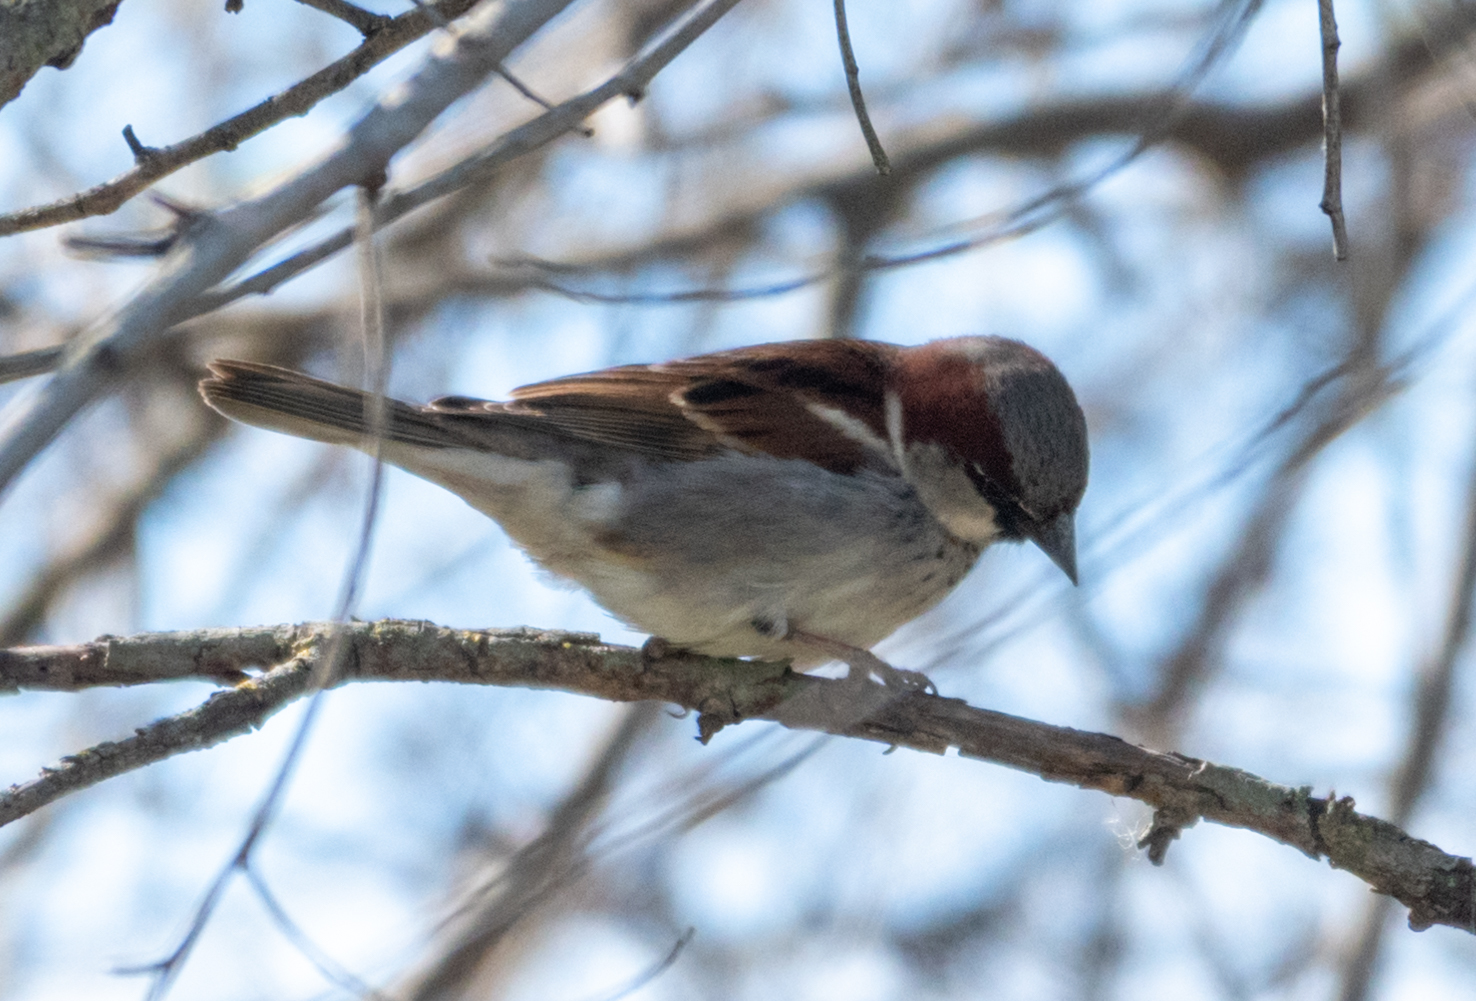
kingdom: Animalia
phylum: Chordata
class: Aves
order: Passeriformes
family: Passeridae
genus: Passer
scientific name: Passer domesticus
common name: House sparrow
